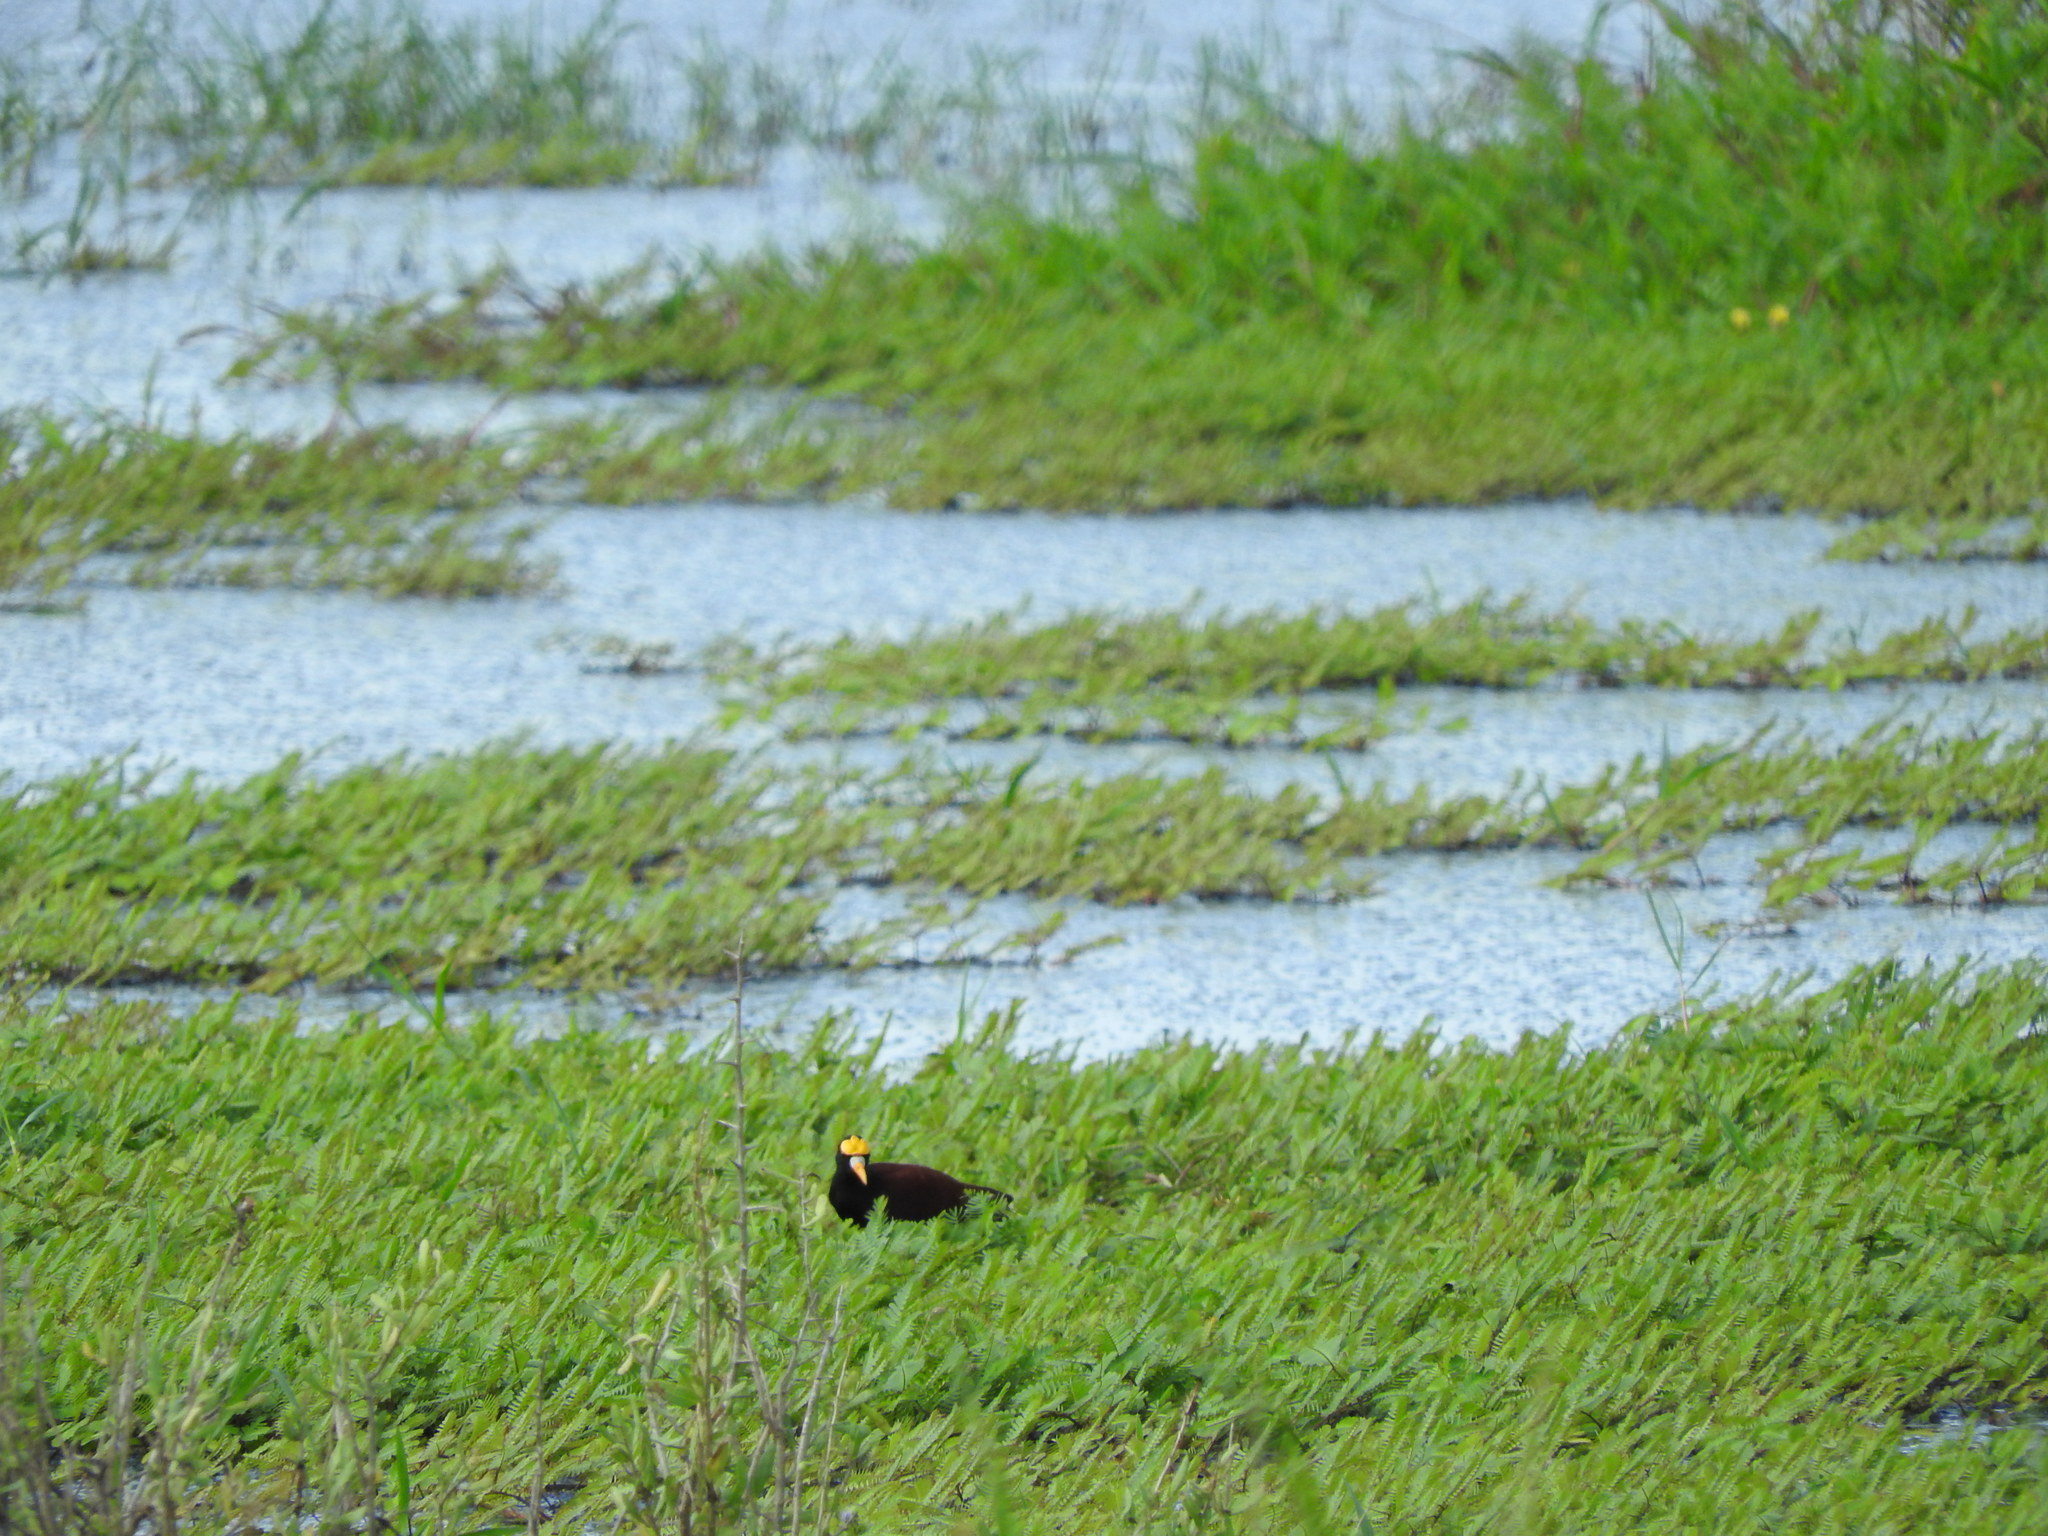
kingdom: Animalia
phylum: Chordata
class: Aves
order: Charadriiformes
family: Jacanidae
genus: Jacana
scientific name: Jacana spinosa
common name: Northern jacana
